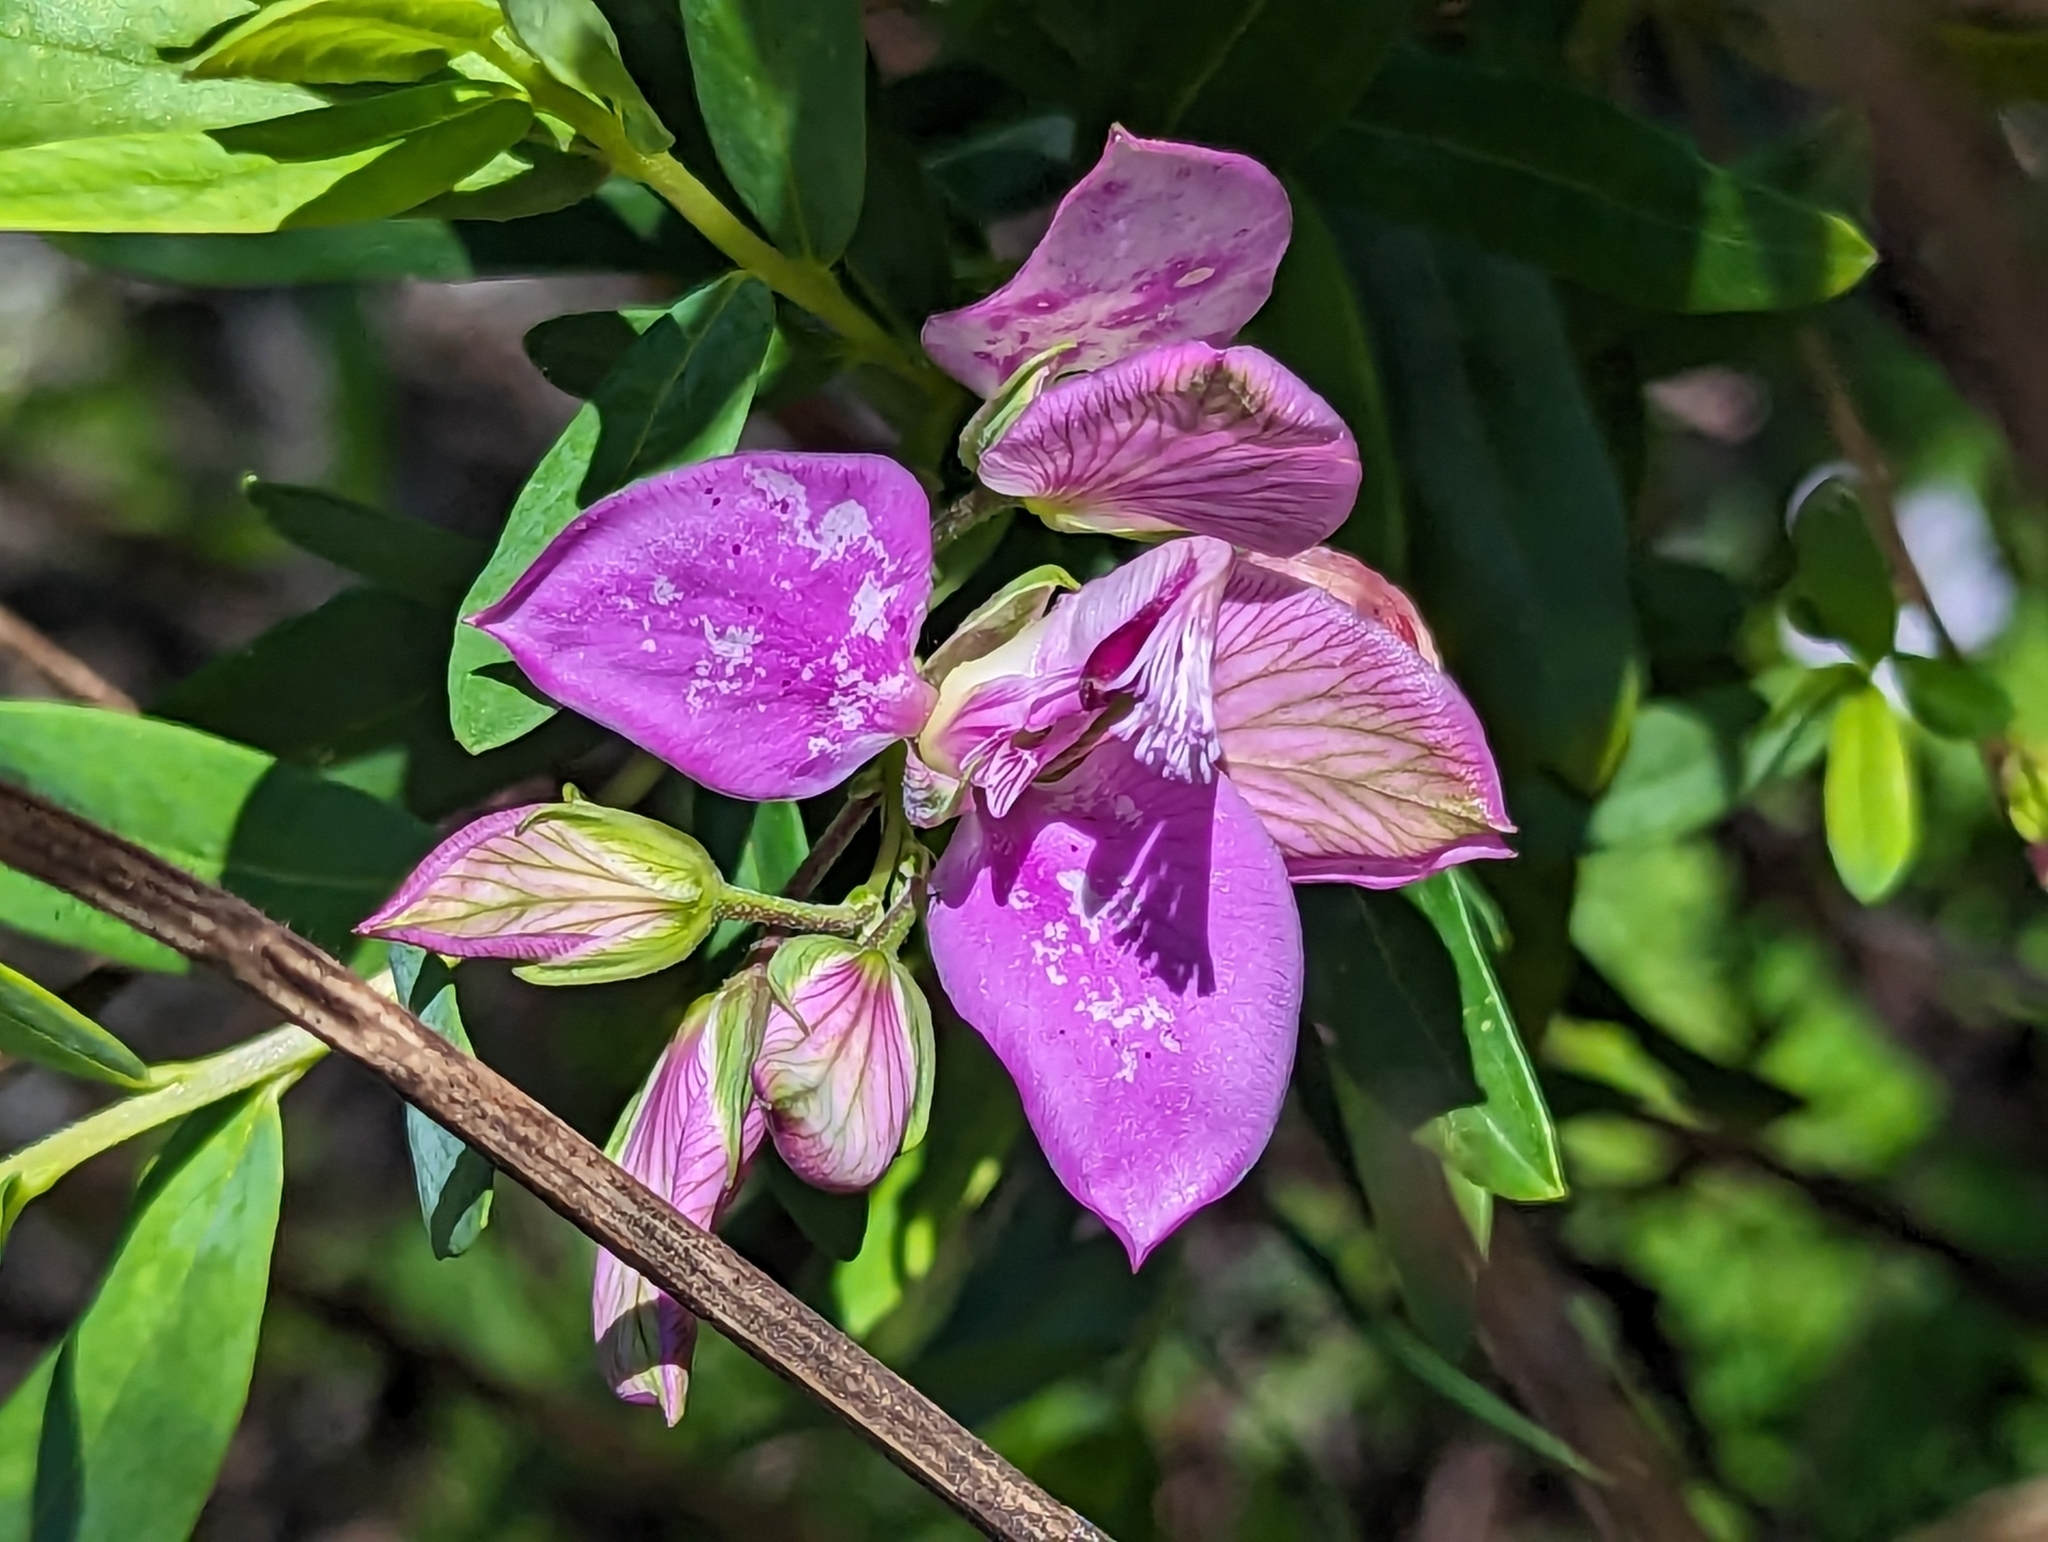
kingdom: Plantae
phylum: Tracheophyta
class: Magnoliopsida
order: Fabales
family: Polygalaceae
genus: Polygala
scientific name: Polygala myrtifolia
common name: Myrtle-leaf milkwort
